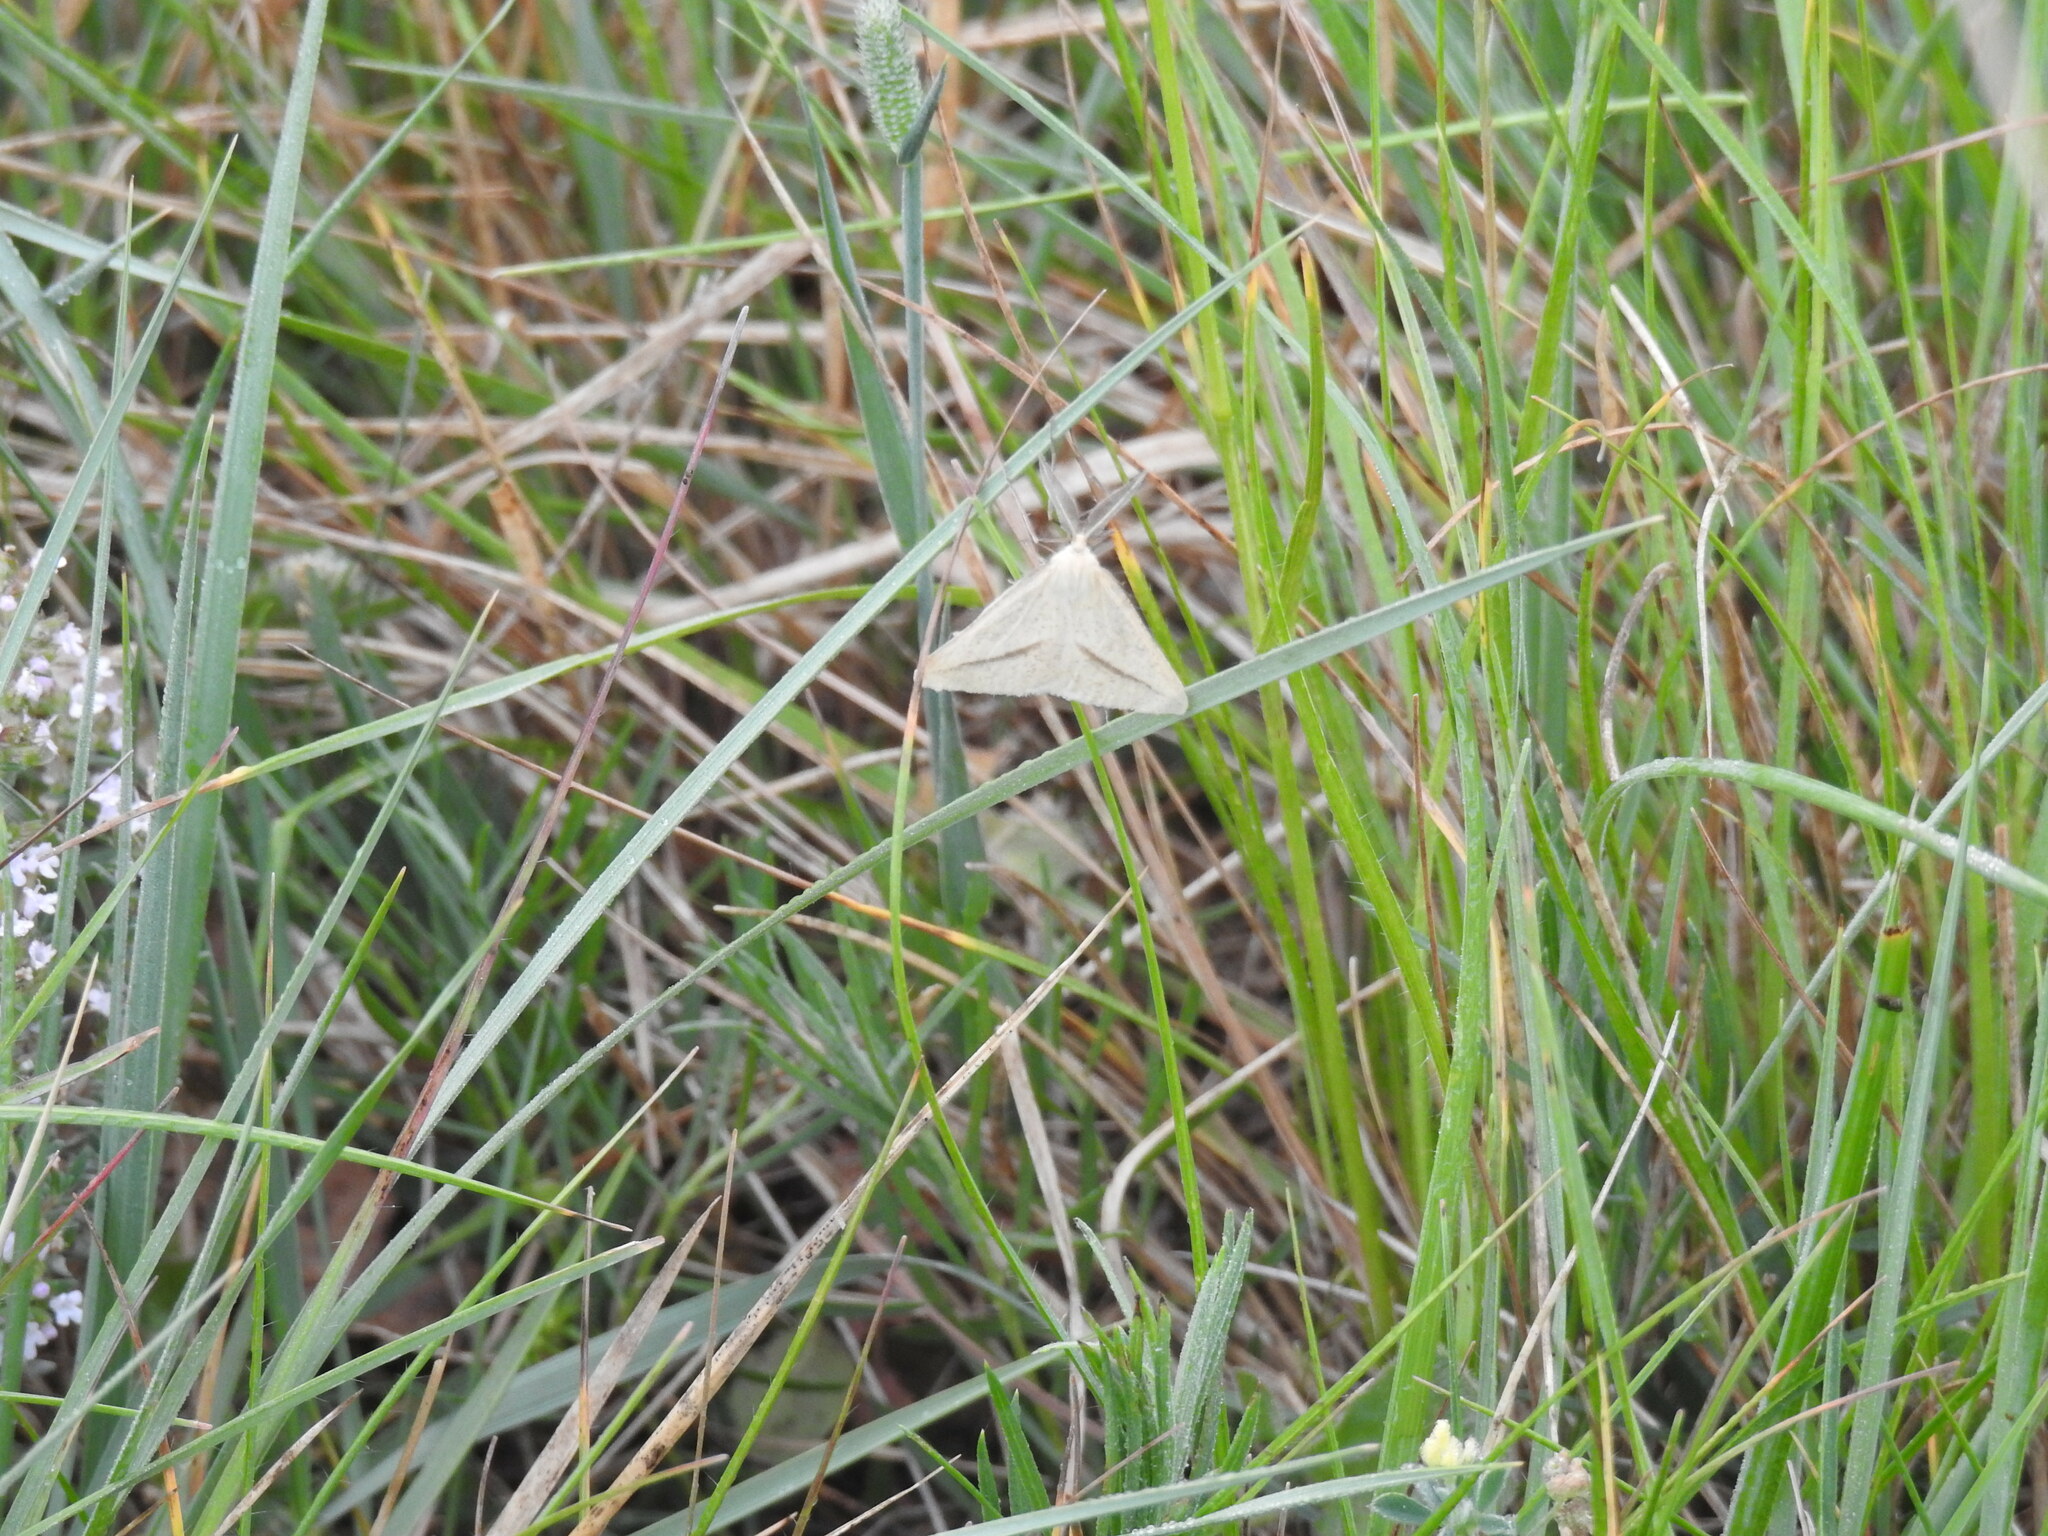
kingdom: Animalia
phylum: Arthropoda
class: Insecta
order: Lepidoptera
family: Geometridae
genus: Aspitates
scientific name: Aspitates gilvaria
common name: Straw belle
